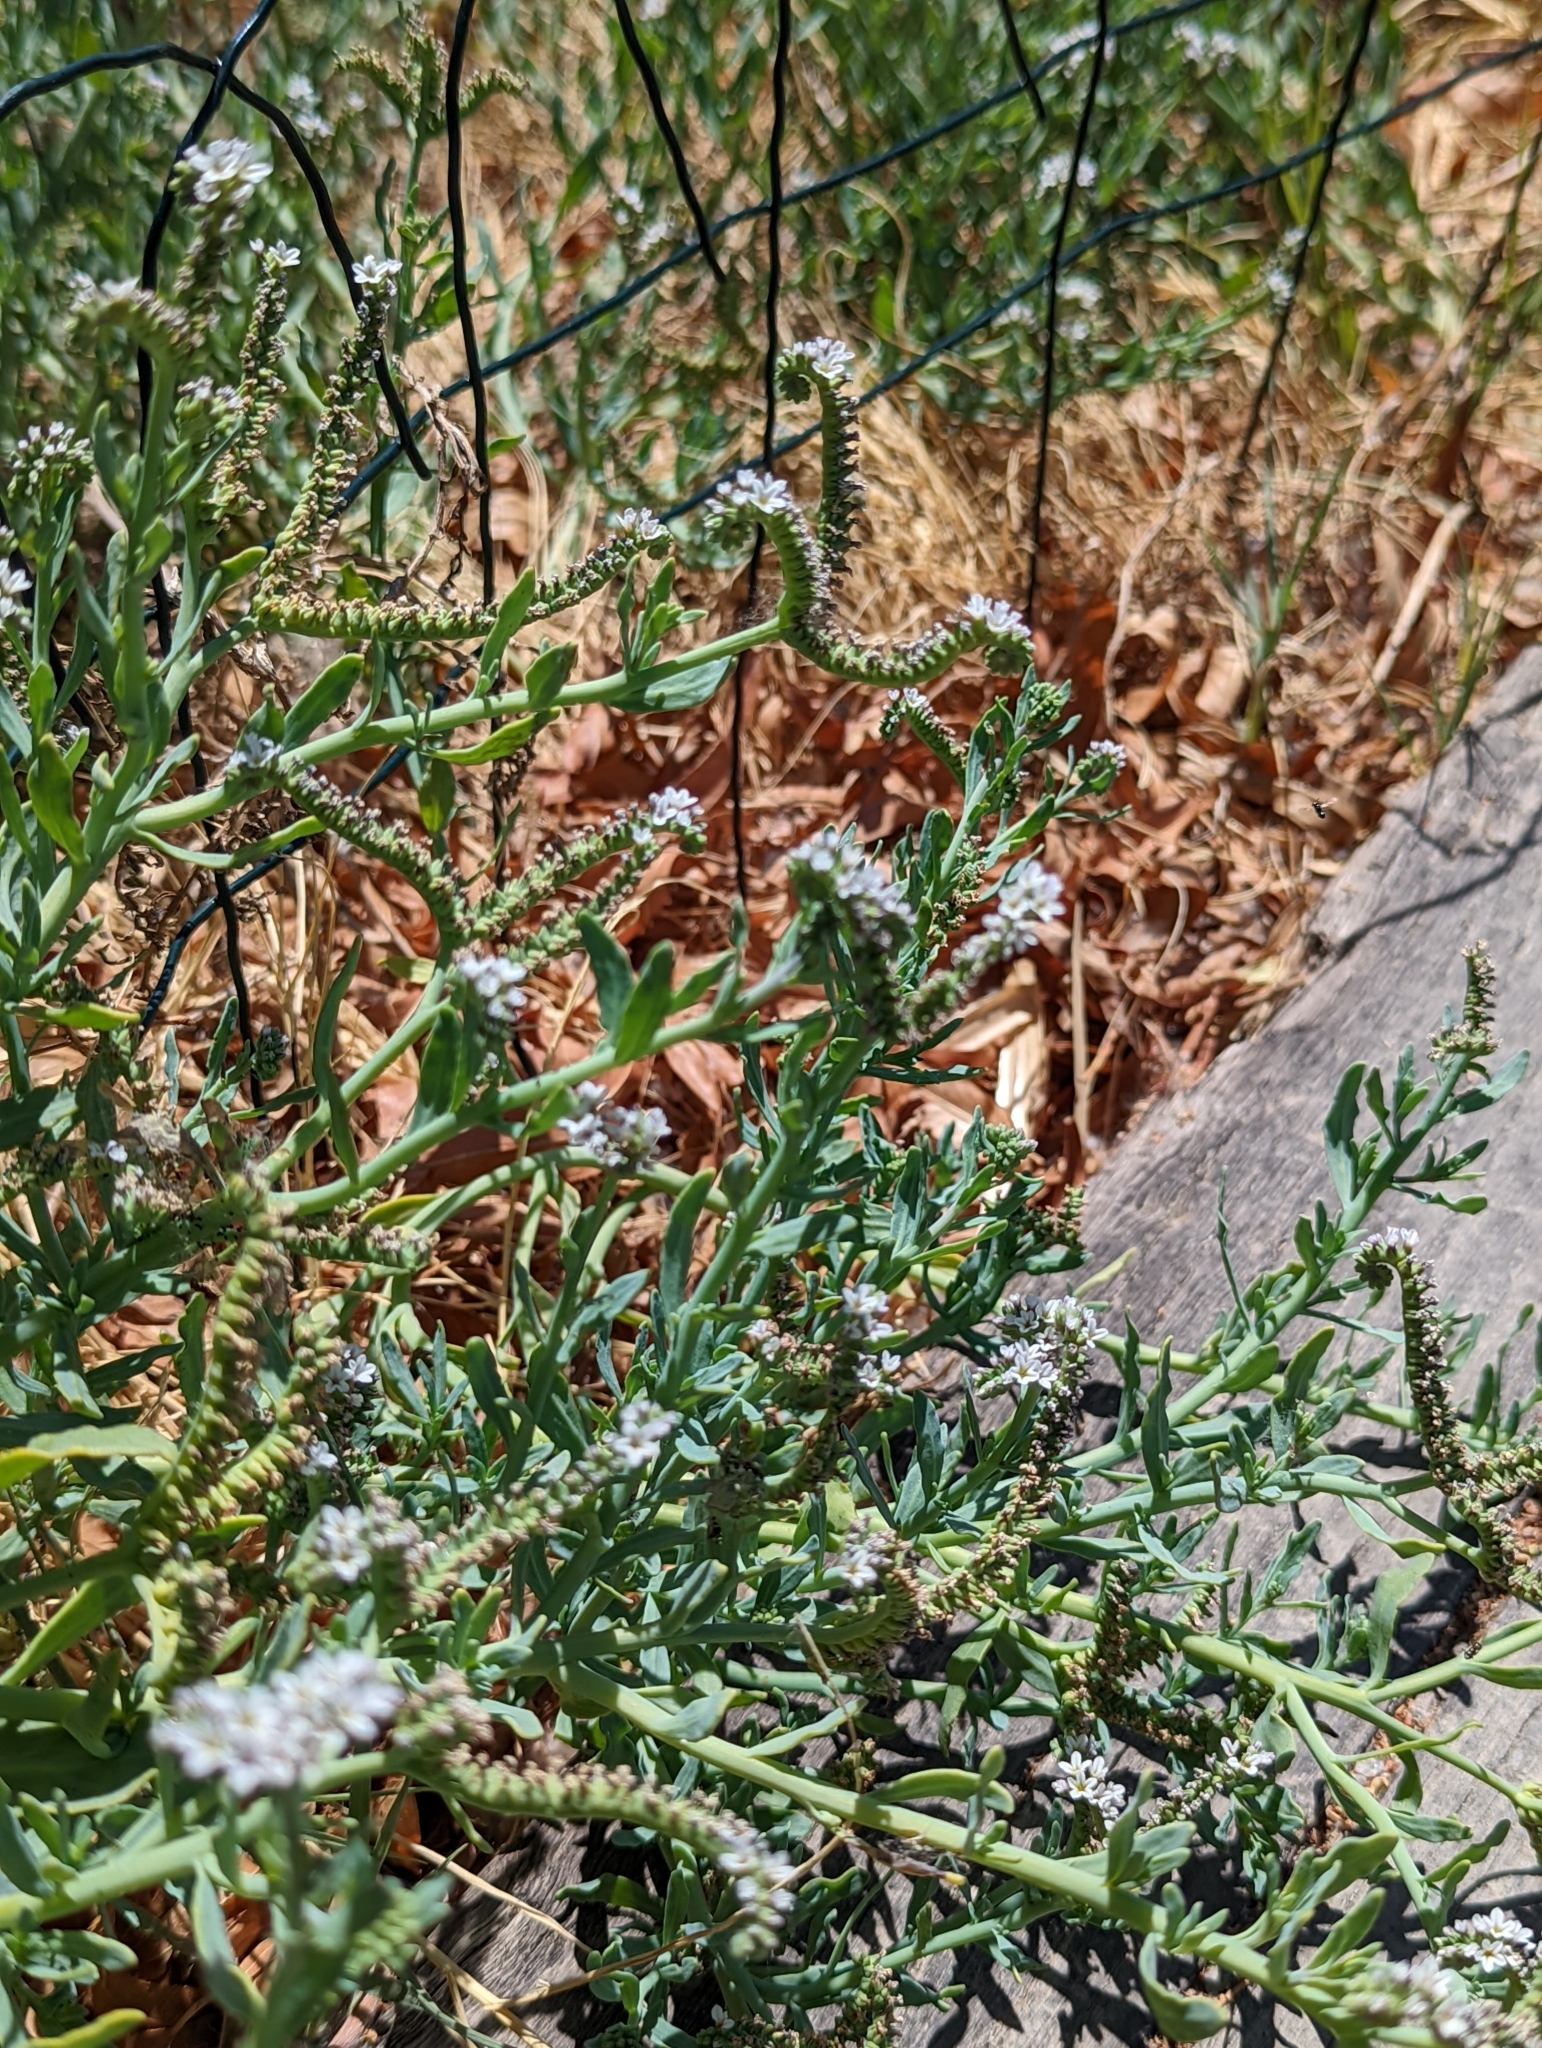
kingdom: Plantae
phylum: Tracheophyta
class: Magnoliopsida
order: Boraginales
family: Heliotropiaceae
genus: Heliotropium
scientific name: Heliotropium curassavicum
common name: Seaside heliotrope
